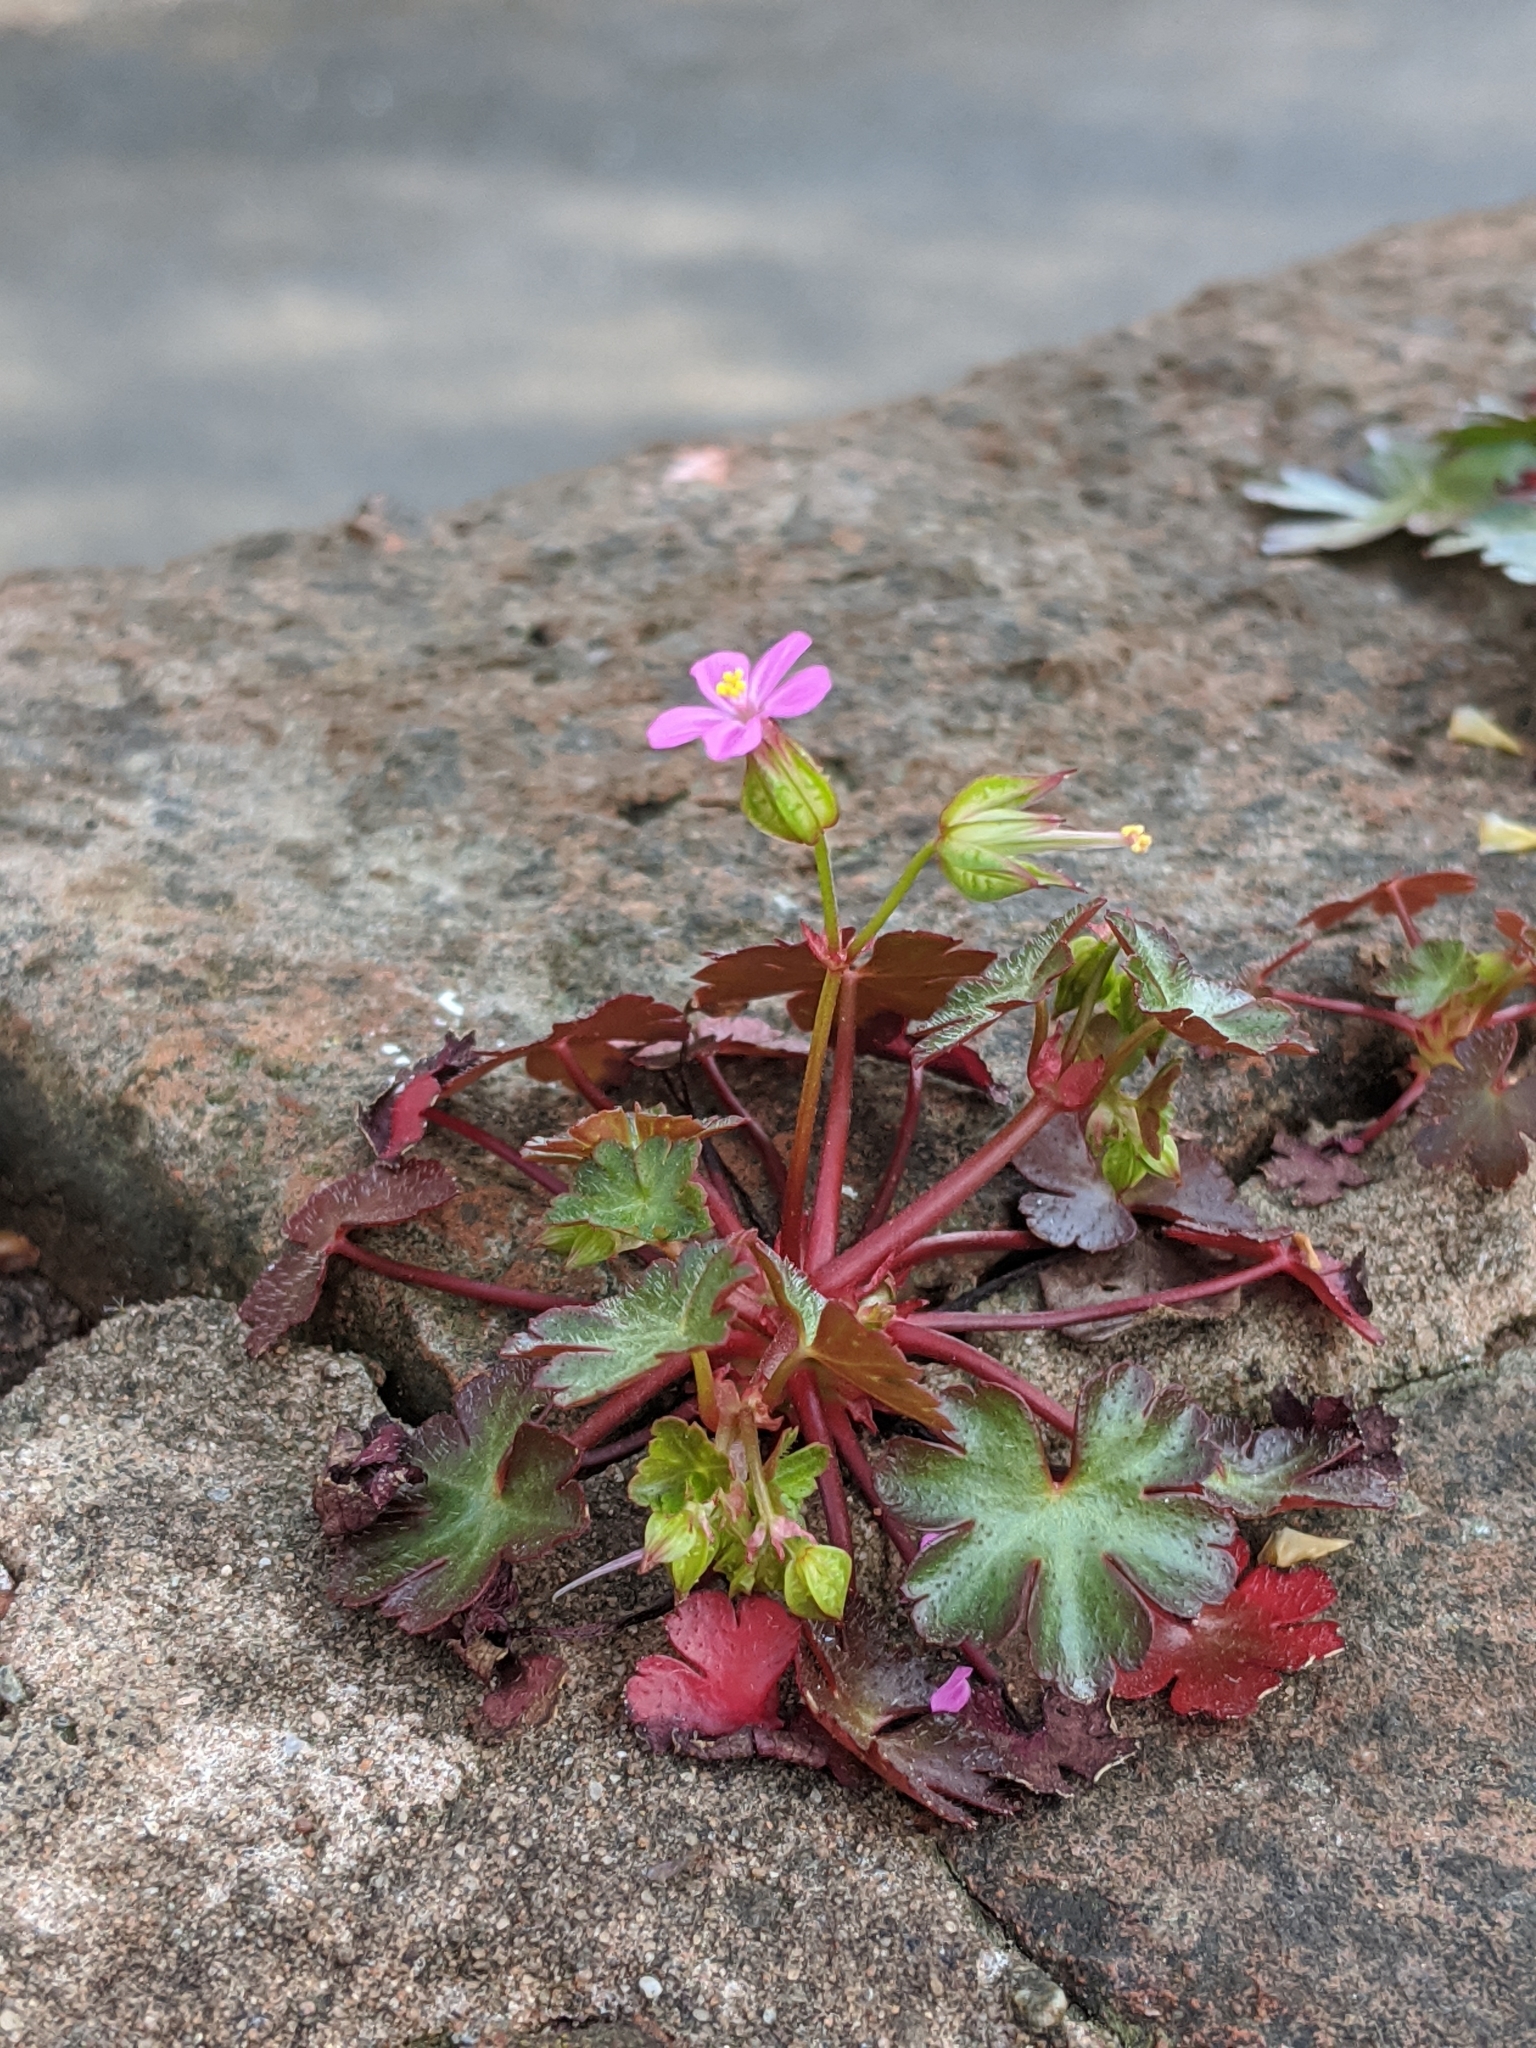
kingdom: Plantae
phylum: Tracheophyta
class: Magnoliopsida
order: Geraniales
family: Geraniaceae
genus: Geranium
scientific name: Geranium lucidum
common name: Shining crane's-bill
